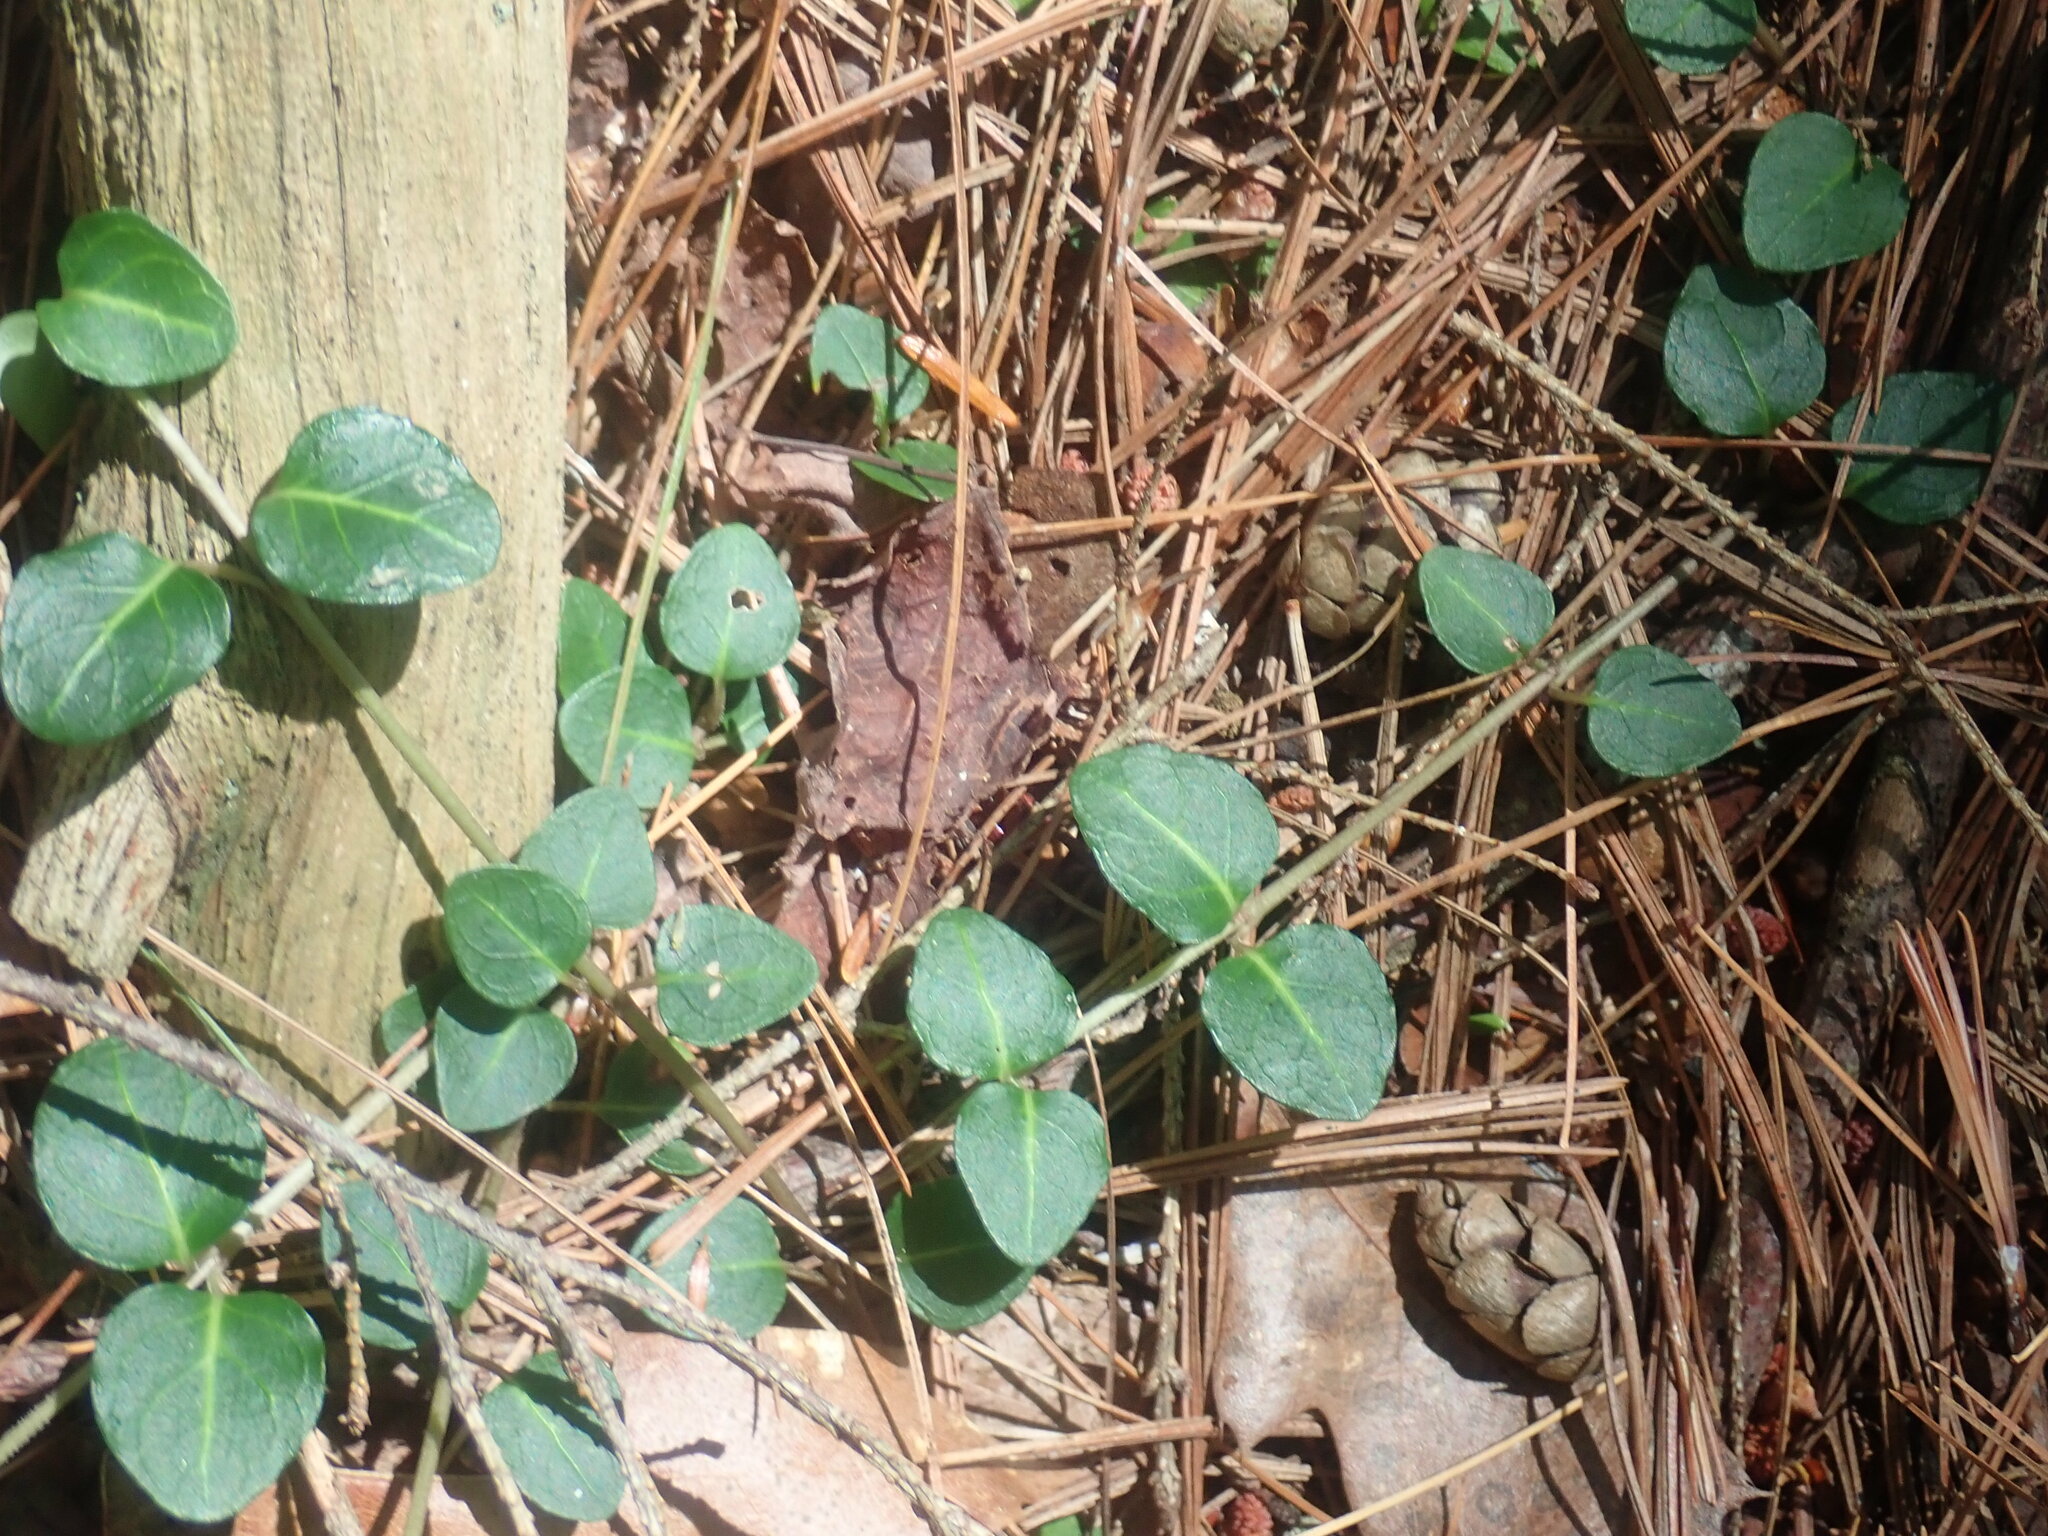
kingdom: Plantae
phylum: Tracheophyta
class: Magnoliopsida
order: Gentianales
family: Rubiaceae
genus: Mitchella
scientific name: Mitchella repens
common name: Partridge-berry
